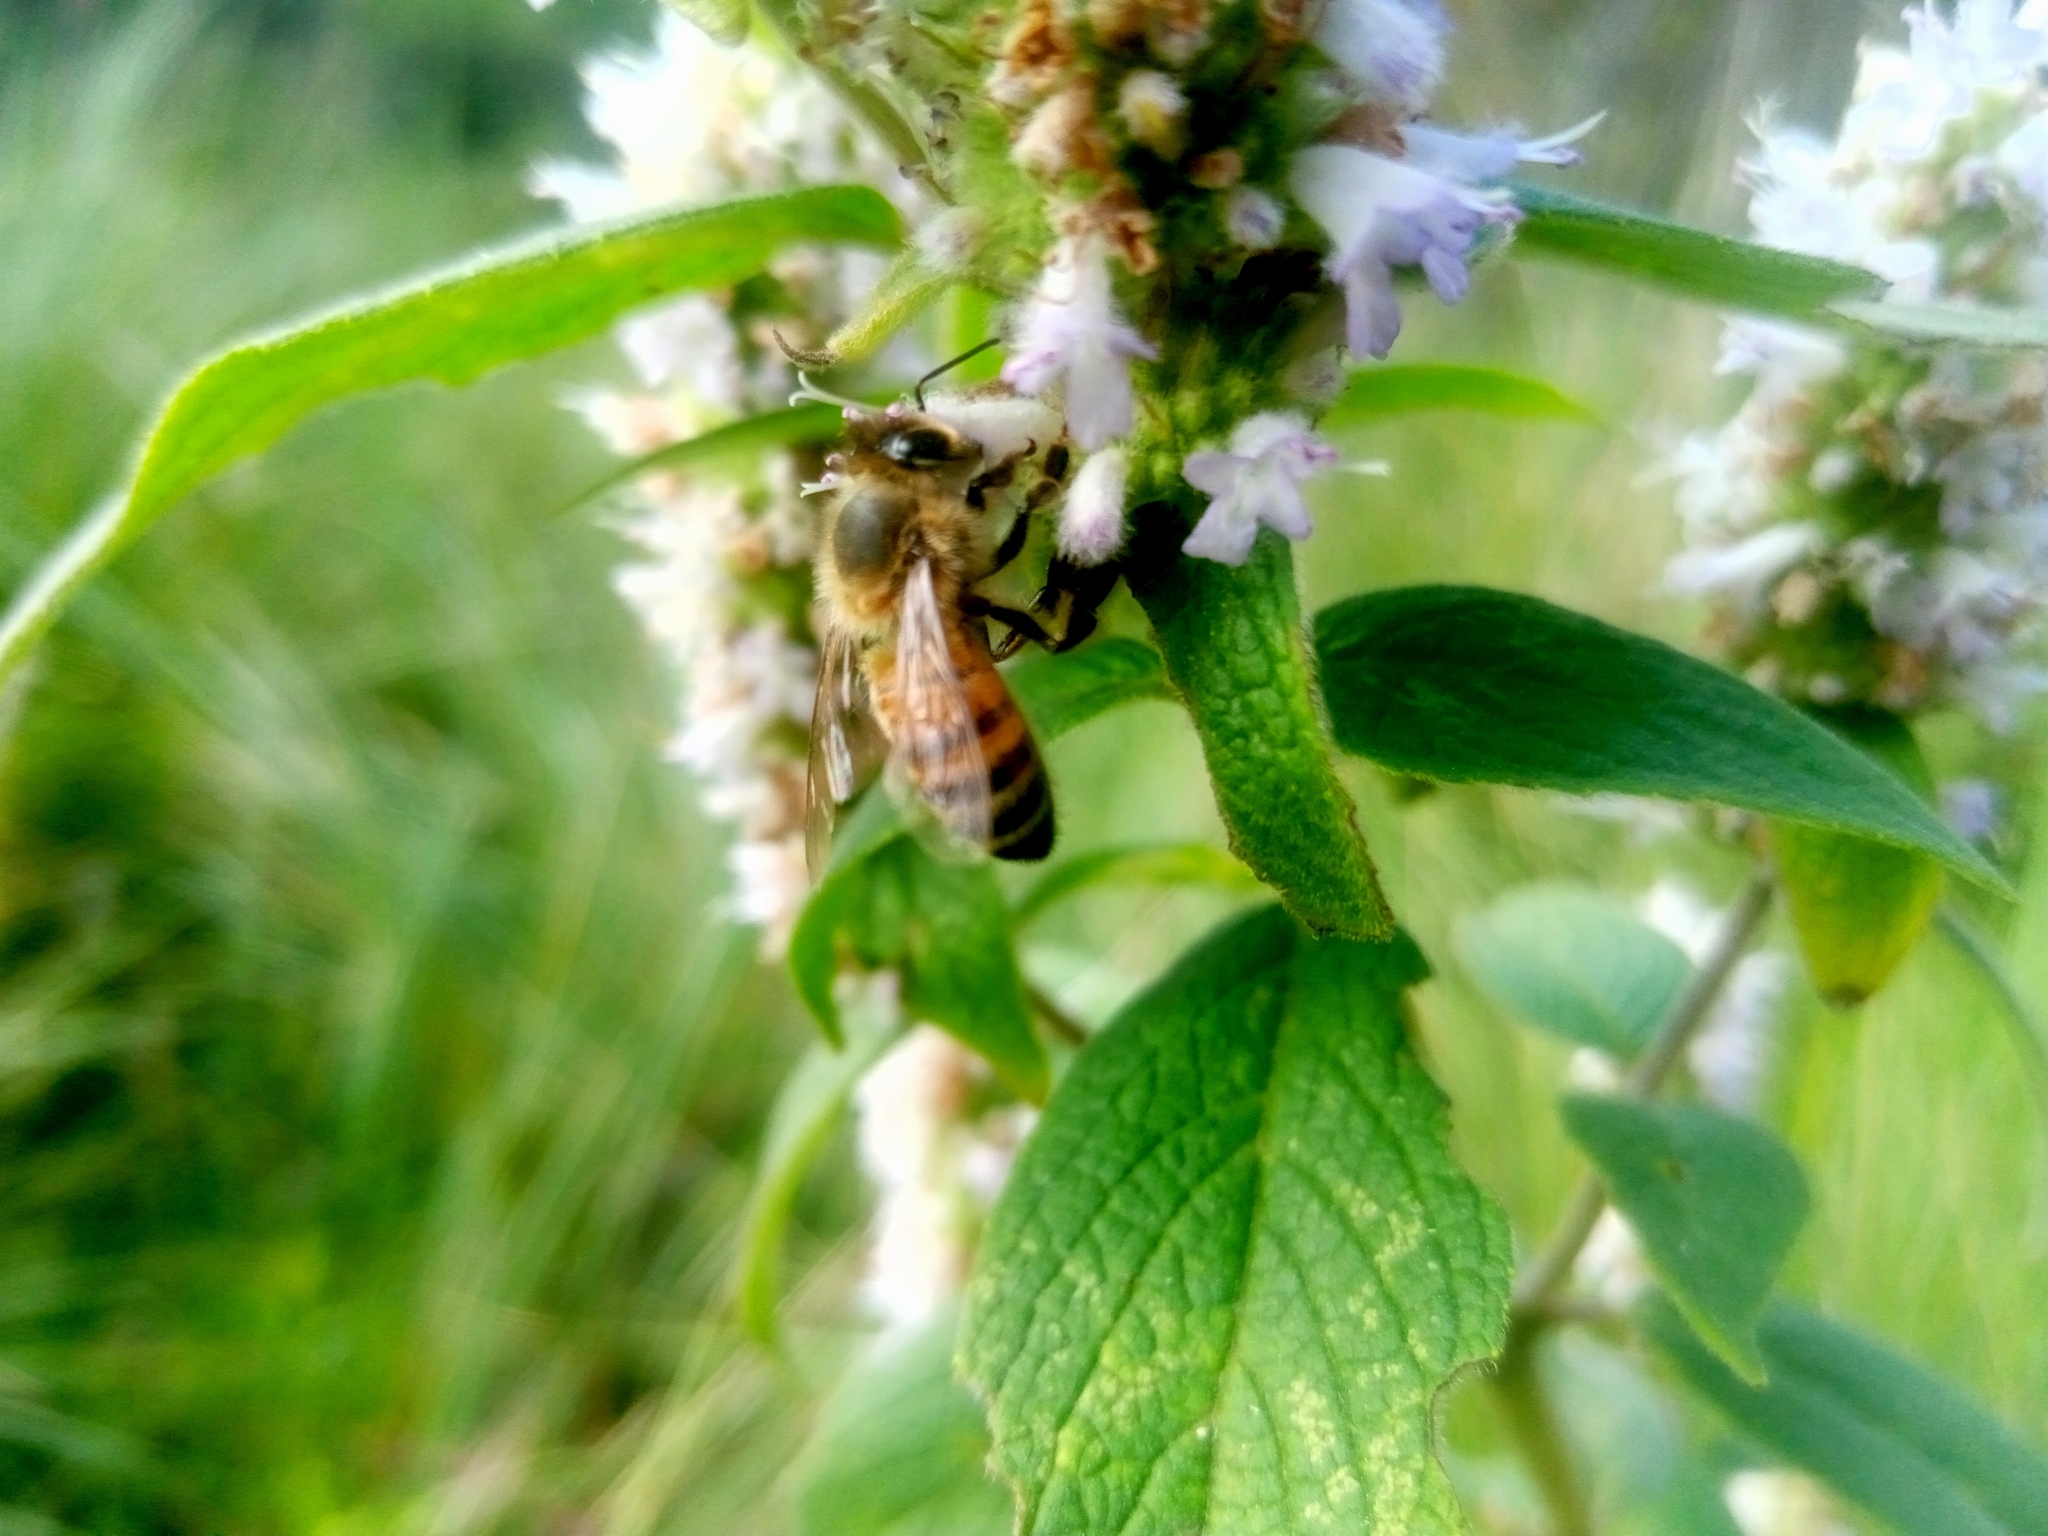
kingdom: Animalia
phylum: Arthropoda
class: Insecta
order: Hymenoptera
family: Apidae
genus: Apis
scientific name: Apis mellifera
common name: Honey bee
